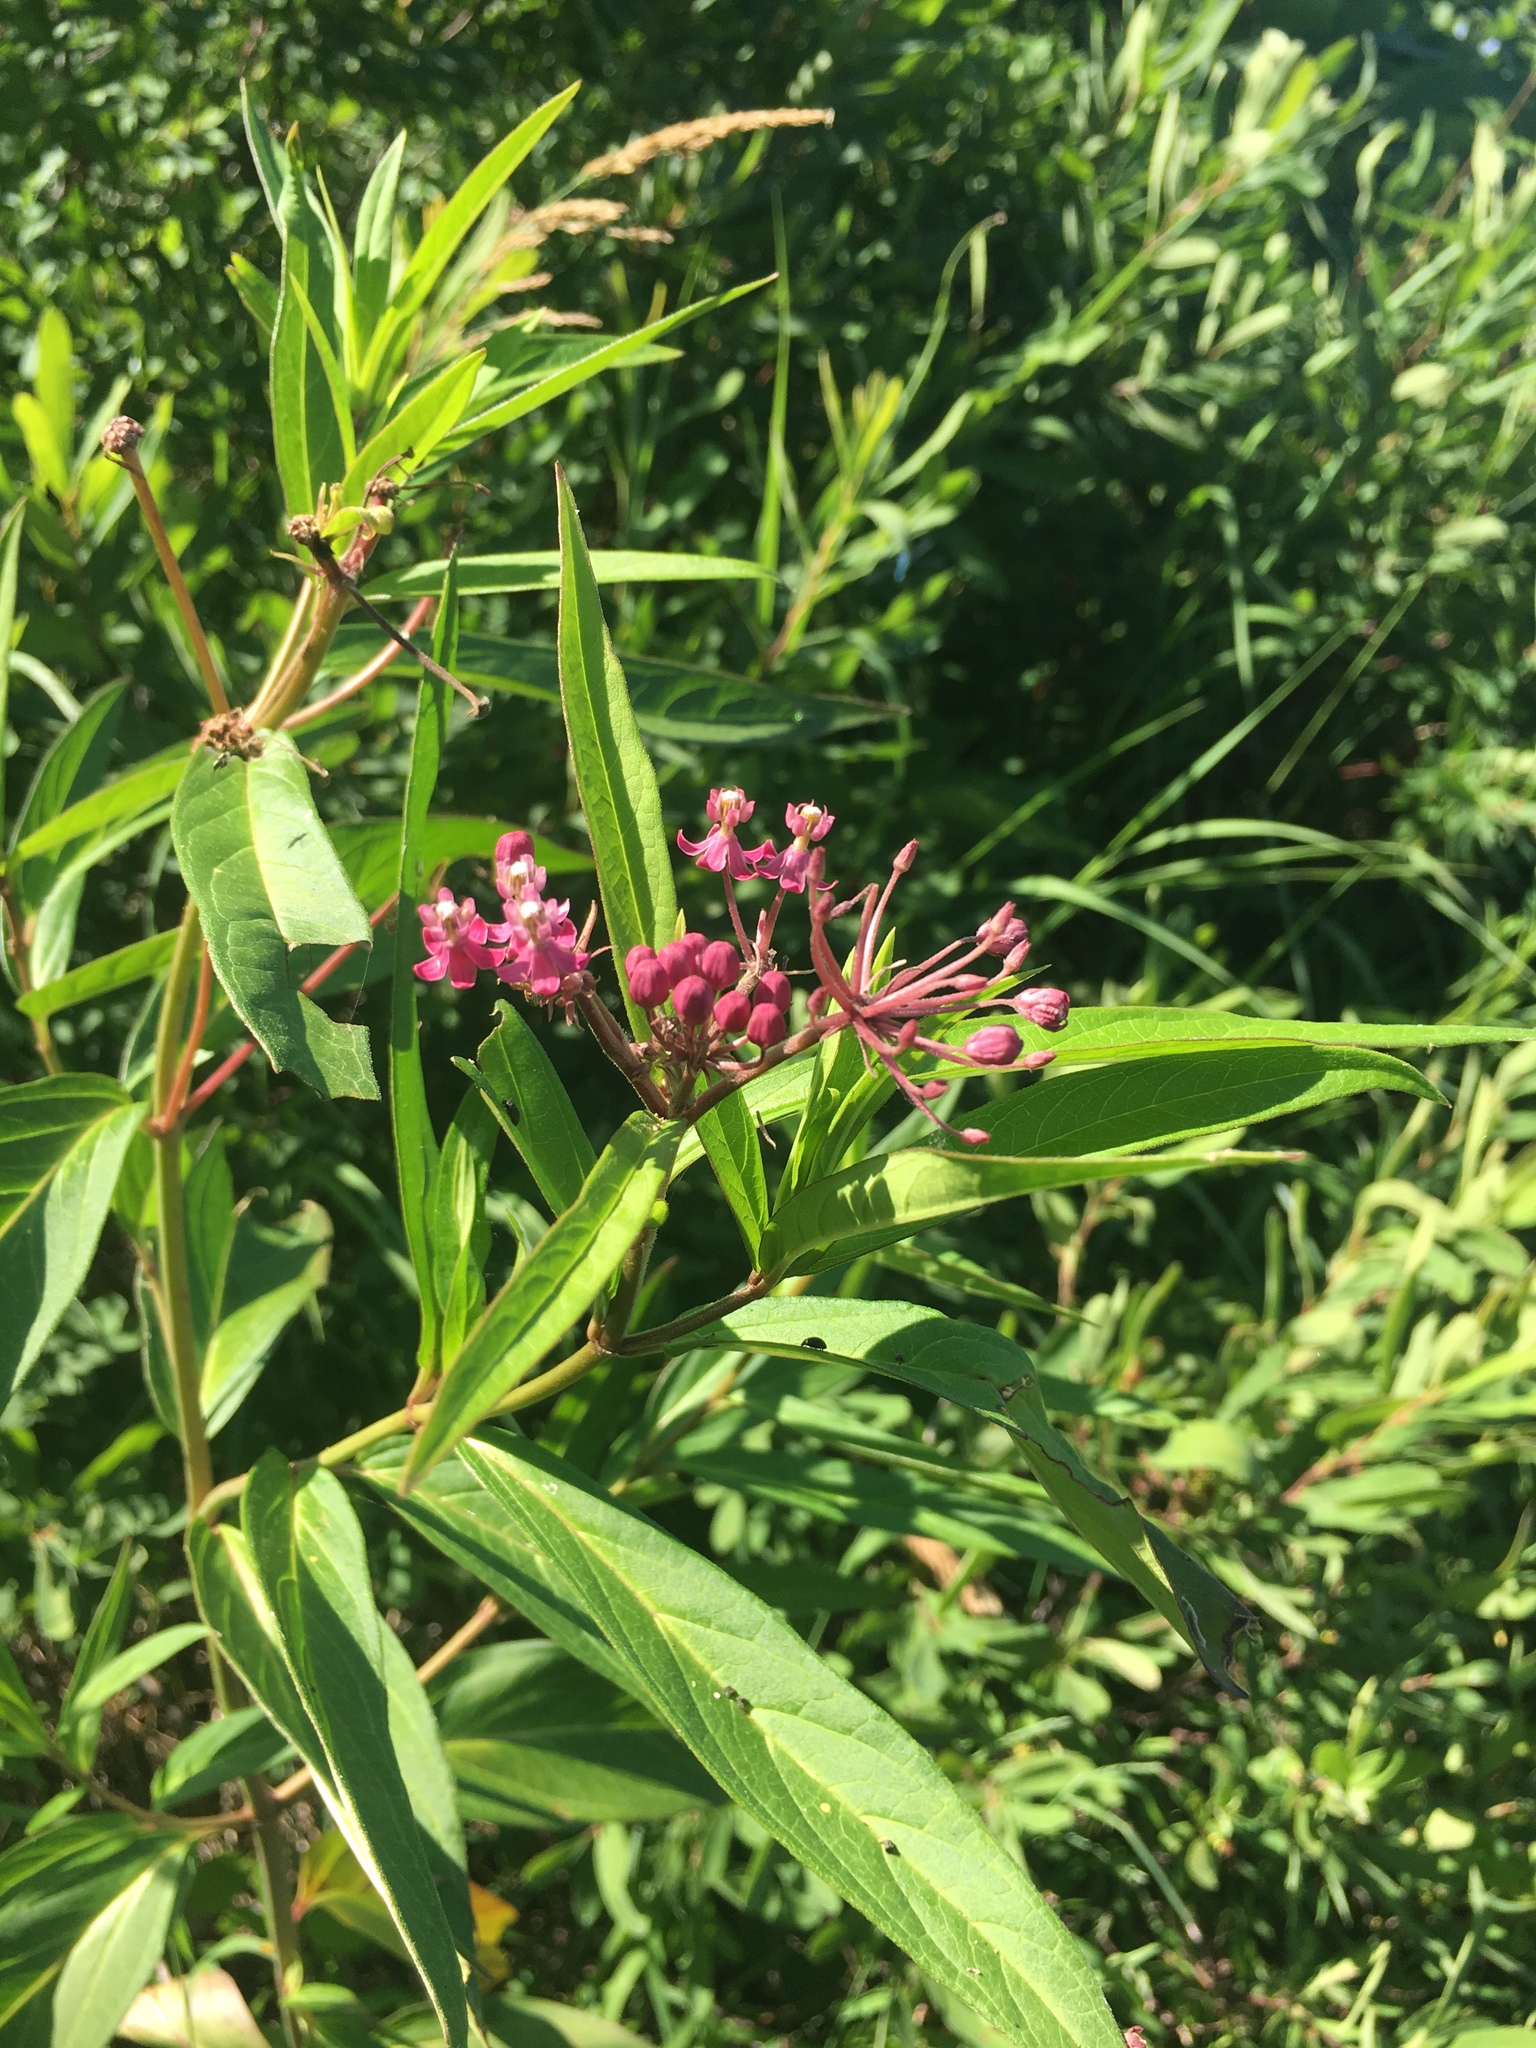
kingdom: Plantae
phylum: Tracheophyta
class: Magnoliopsida
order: Gentianales
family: Apocynaceae
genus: Asclepias
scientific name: Asclepias incarnata
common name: Swamp milkweed
